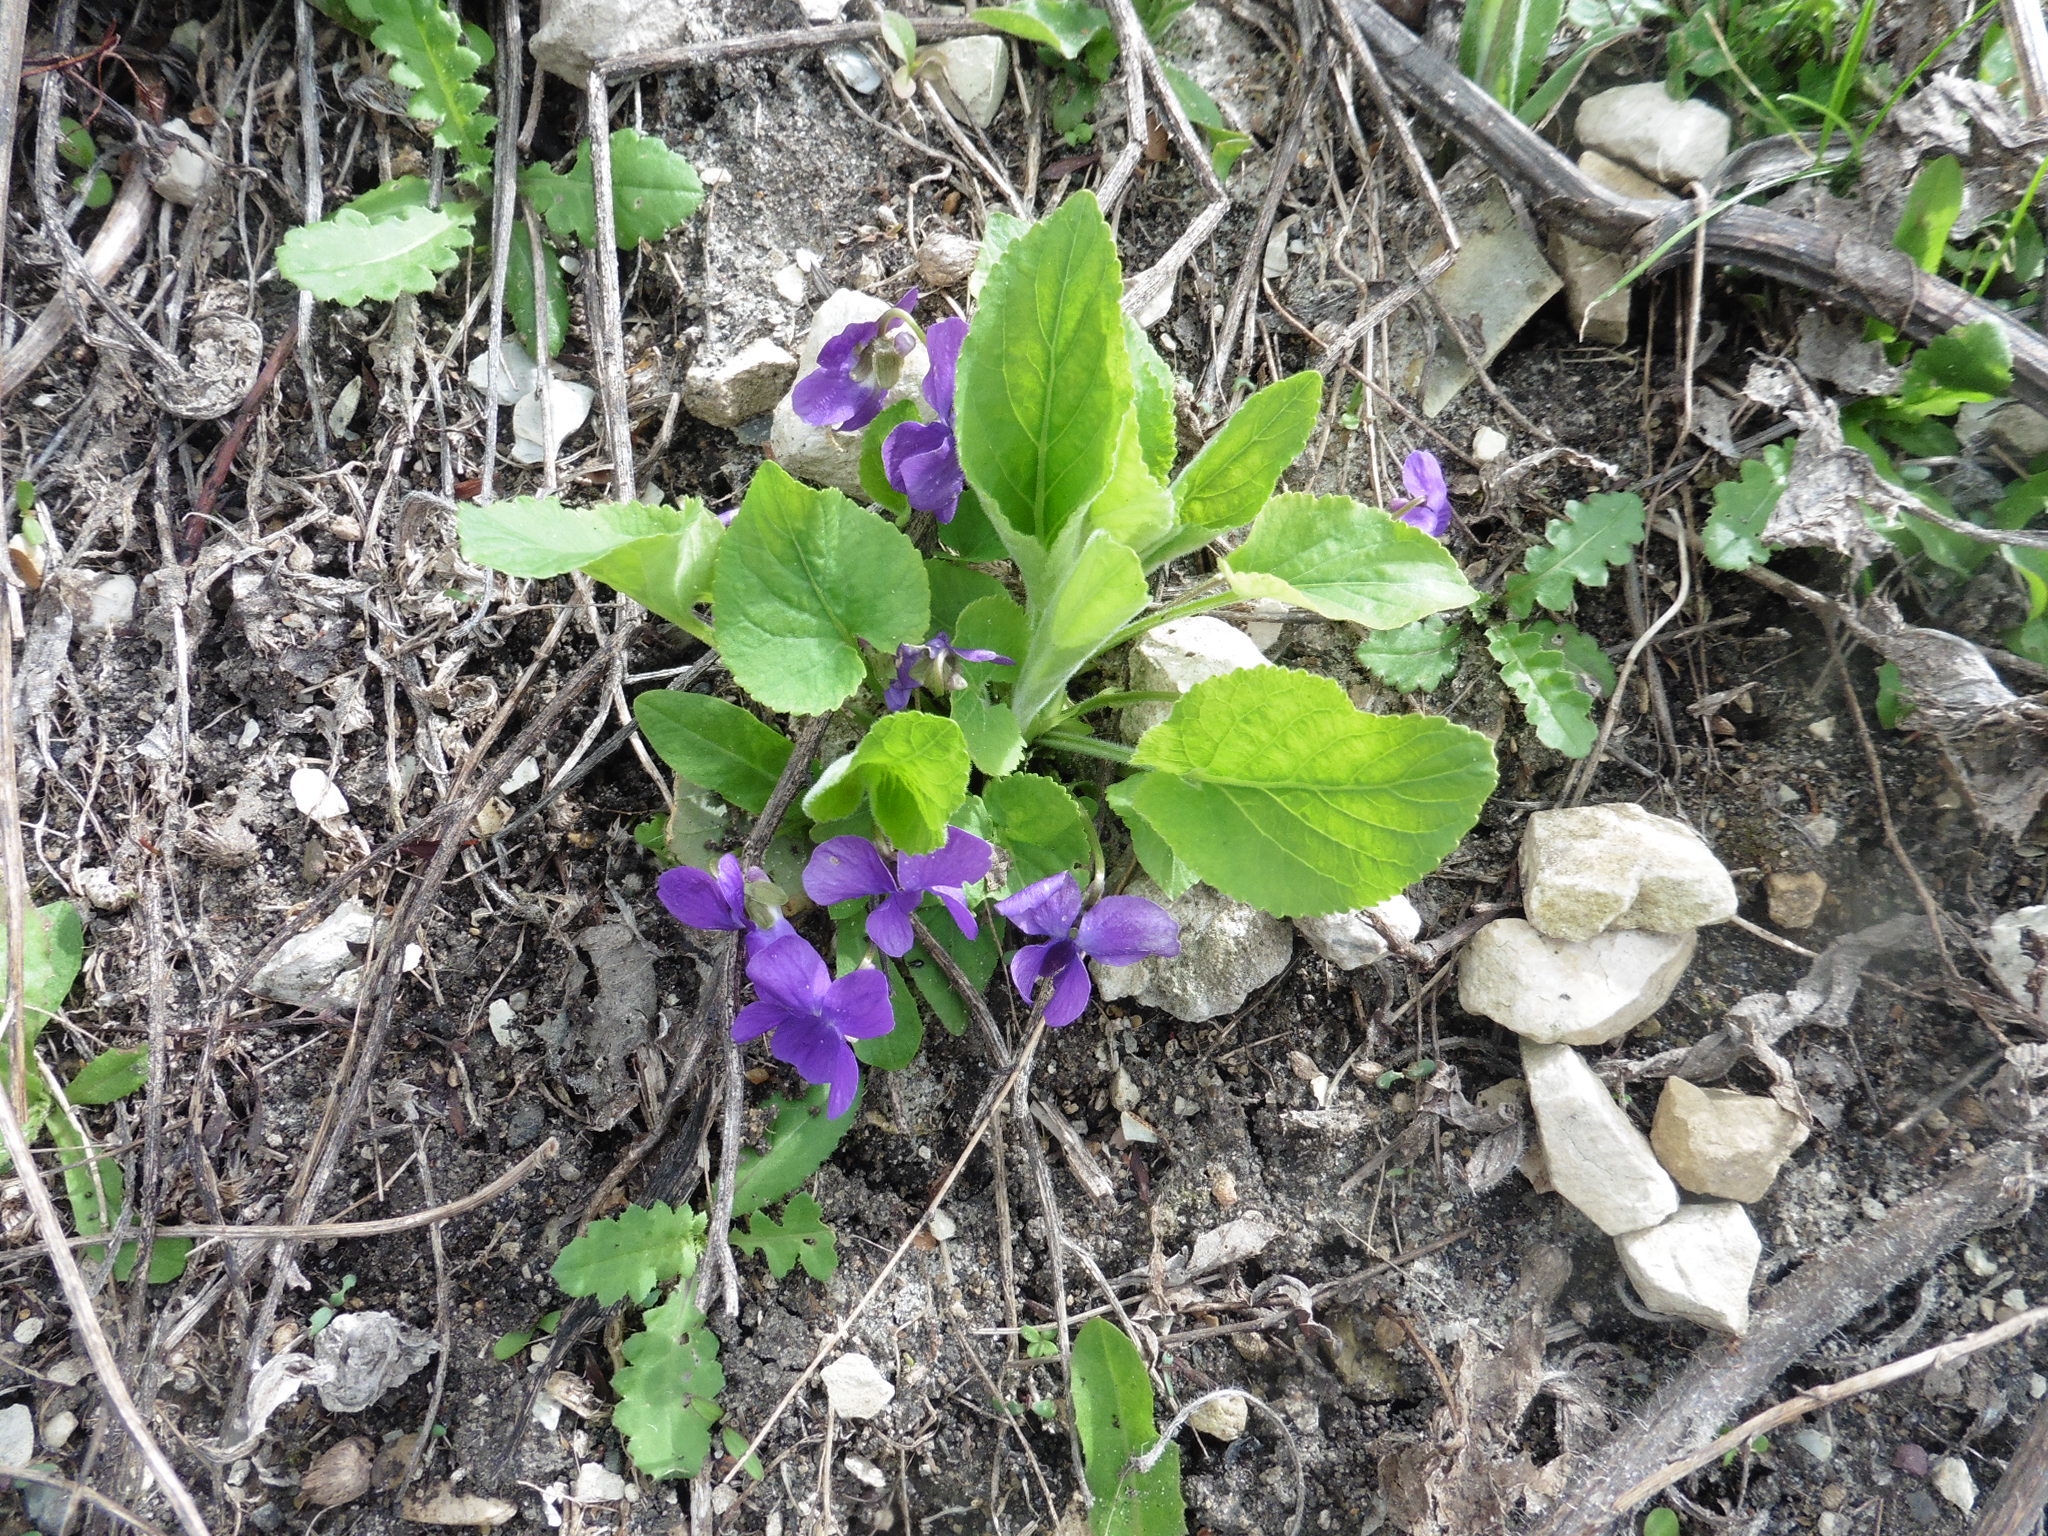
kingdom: Plantae
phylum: Tracheophyta
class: Magnoliopsida
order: Malpighiales
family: Violaceae
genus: Viola
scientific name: Viola hirta
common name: Hairy violet
